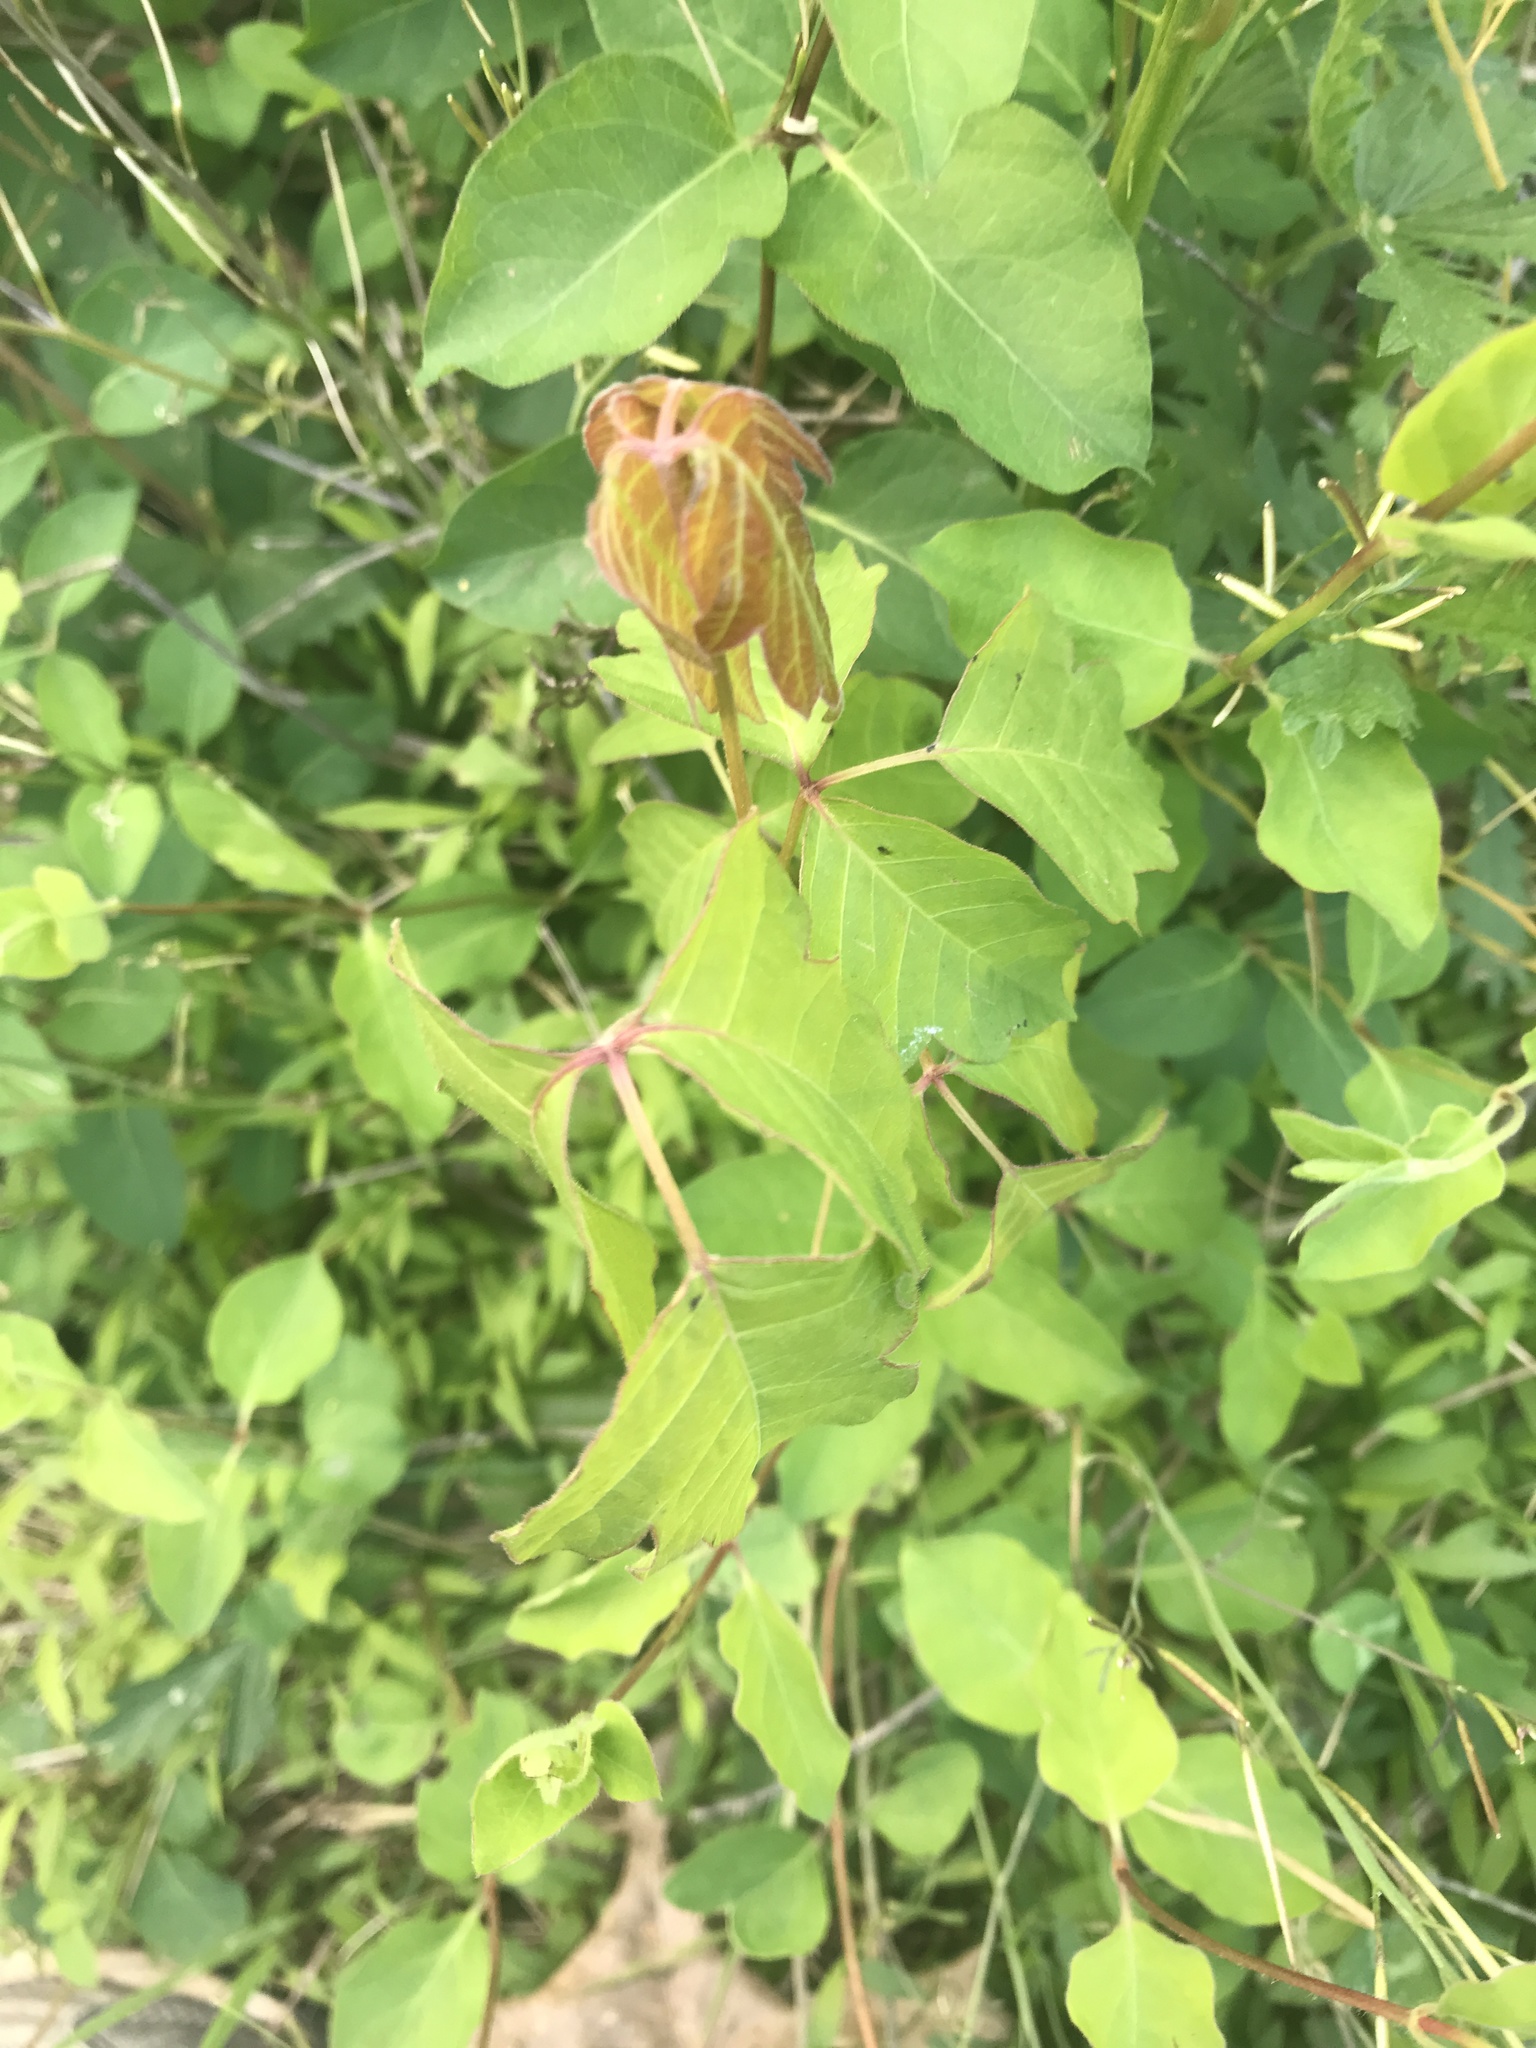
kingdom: Plantae
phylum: Tracheophyta
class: Magnoliopsida
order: Sapindales
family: Anacardiaceae
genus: Toxicodendron
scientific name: Toxicodendron radicans
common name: Poison ivy
